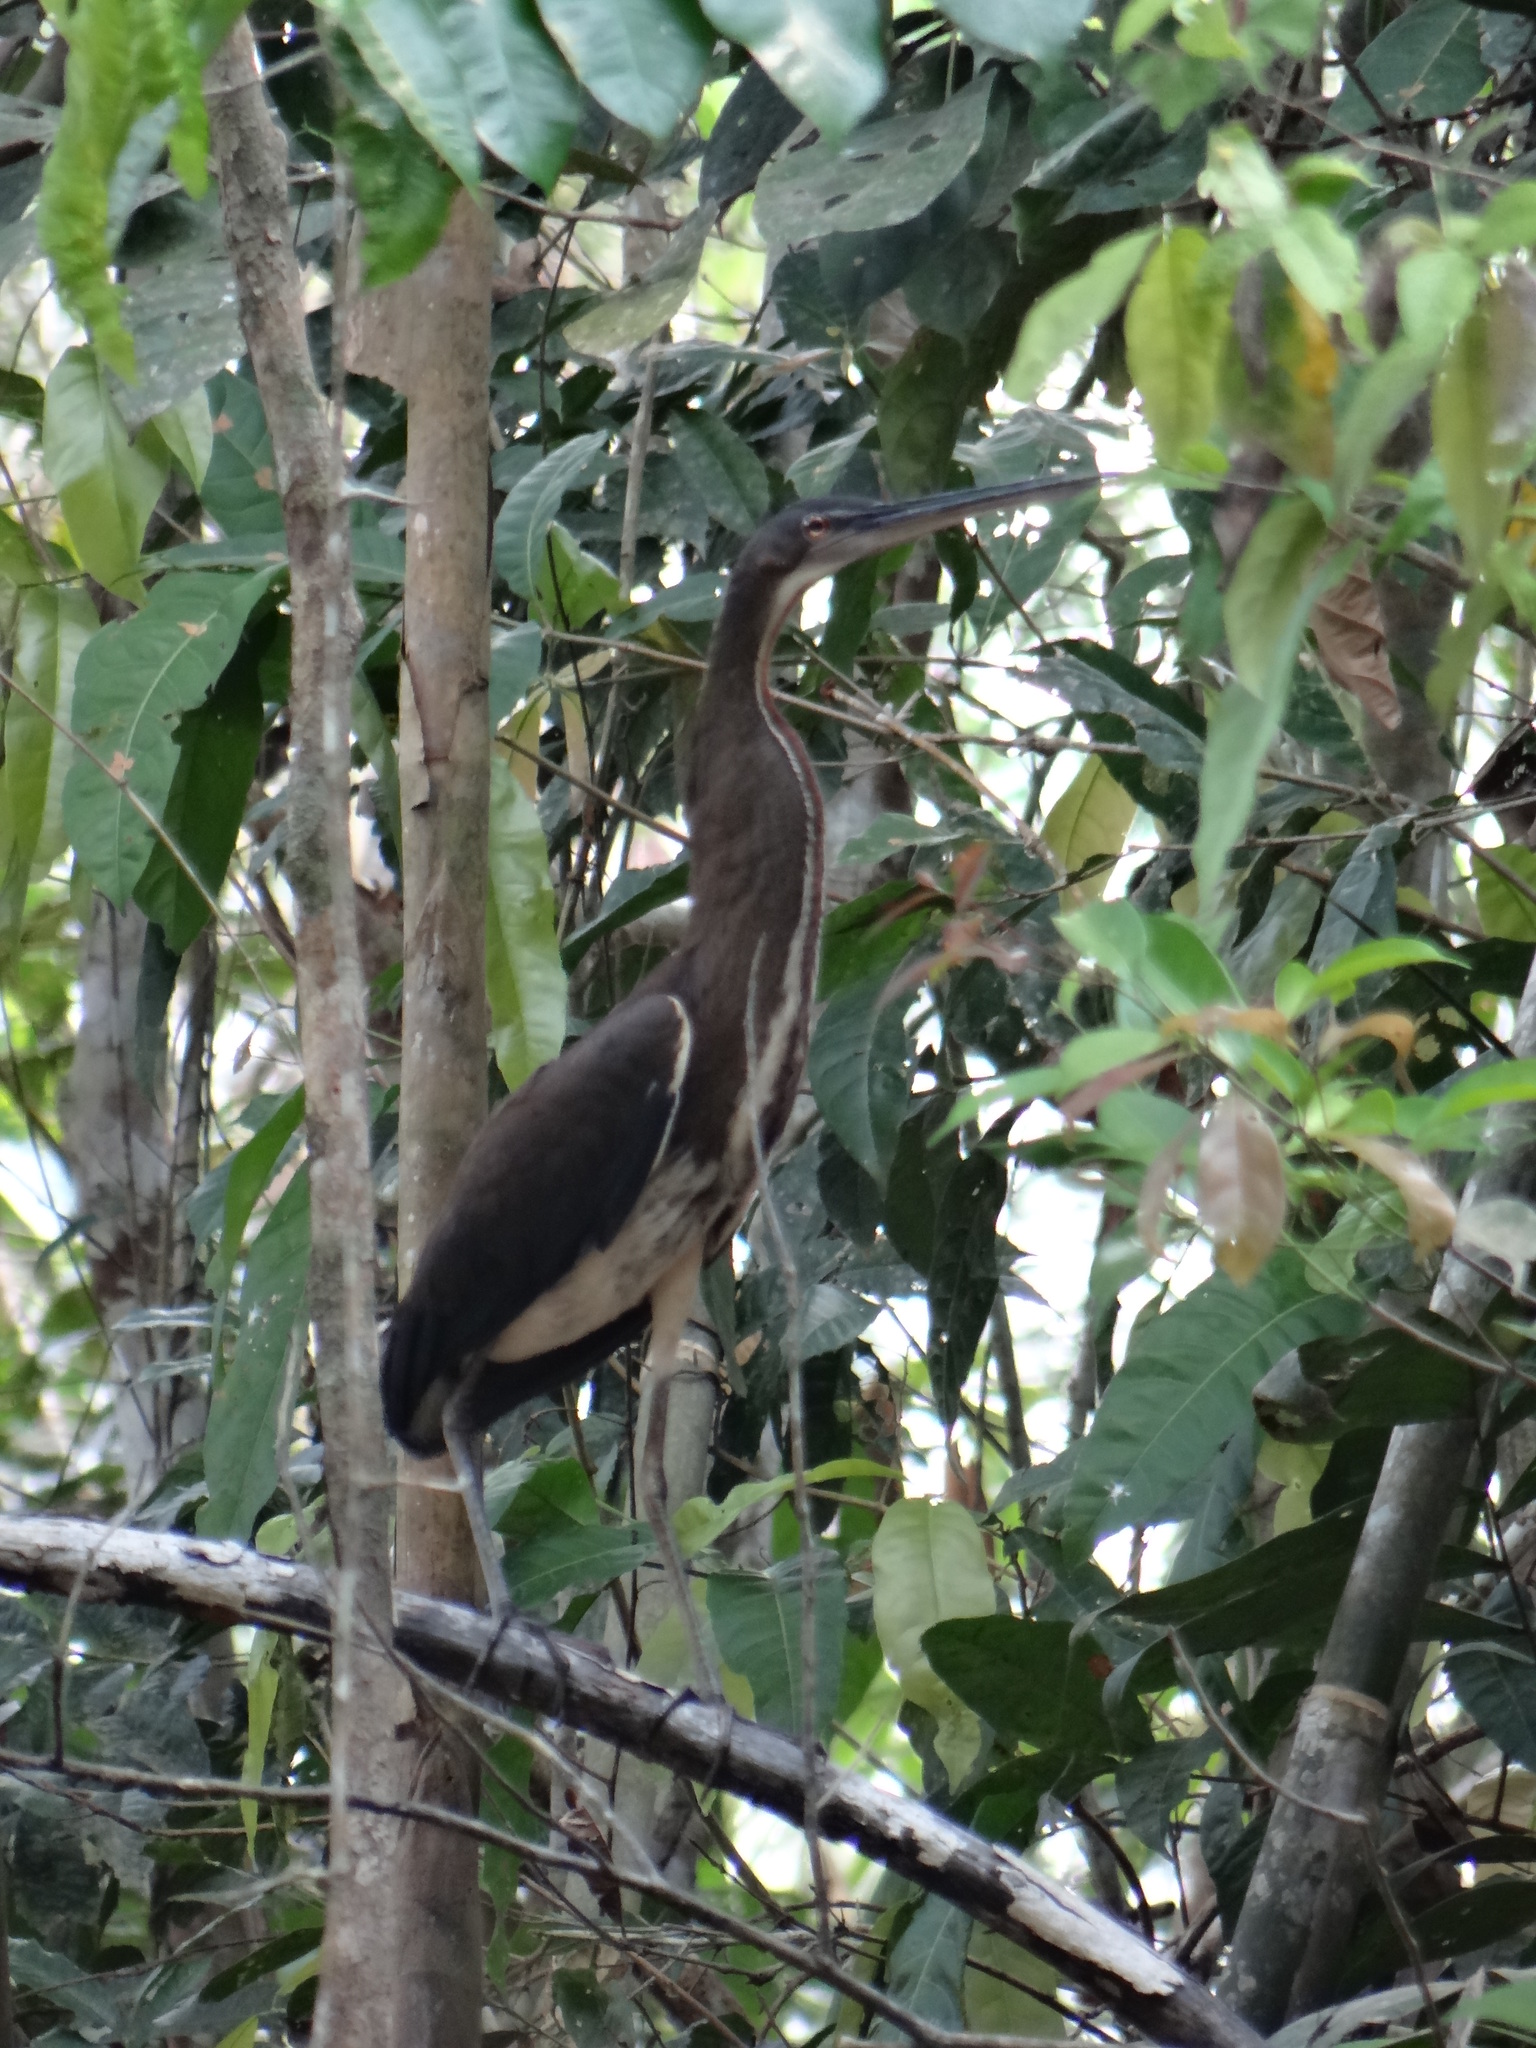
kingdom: Animalia
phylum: Chordata
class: Aves
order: Pelecaniformes
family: Ardeidae
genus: Agamia
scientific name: Agamia agami
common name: Agami heron
